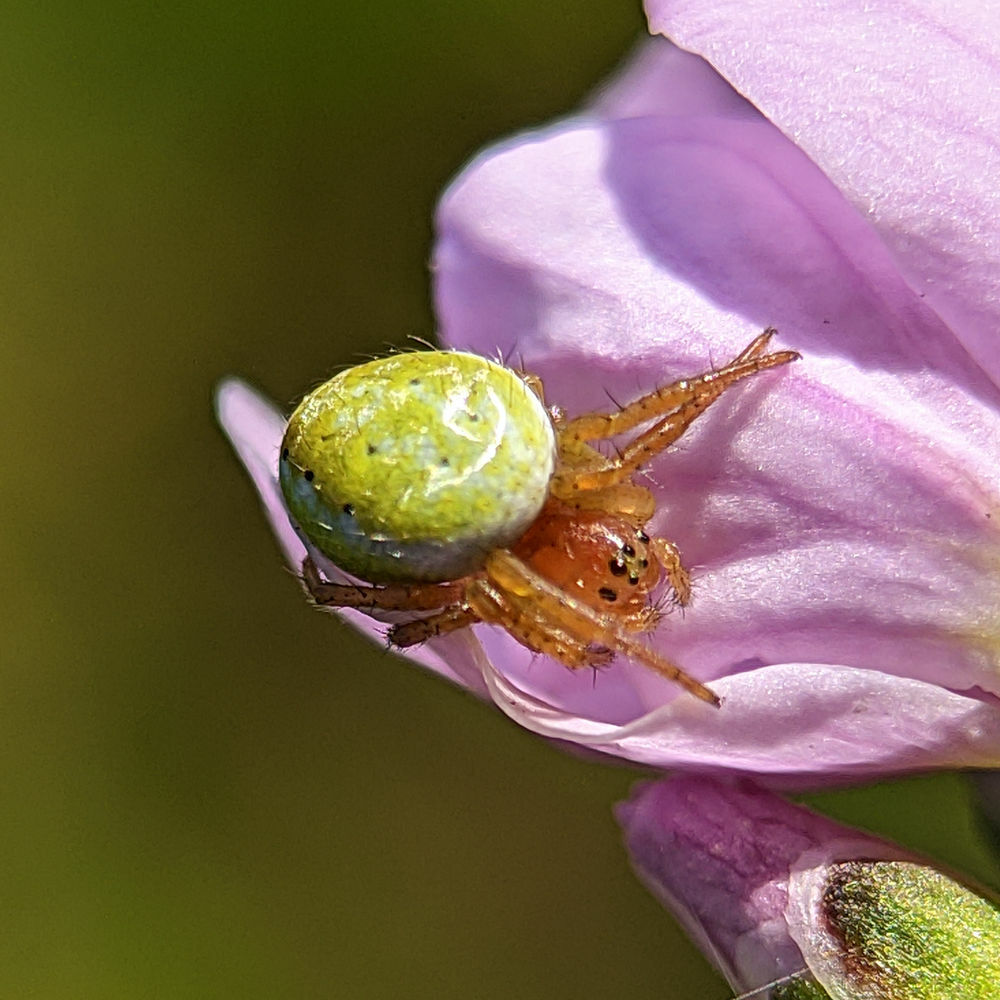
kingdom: Animalia
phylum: Arthropoda
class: Arachnida
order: Araneae
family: Araneidae
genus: Araniella
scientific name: Araniella
